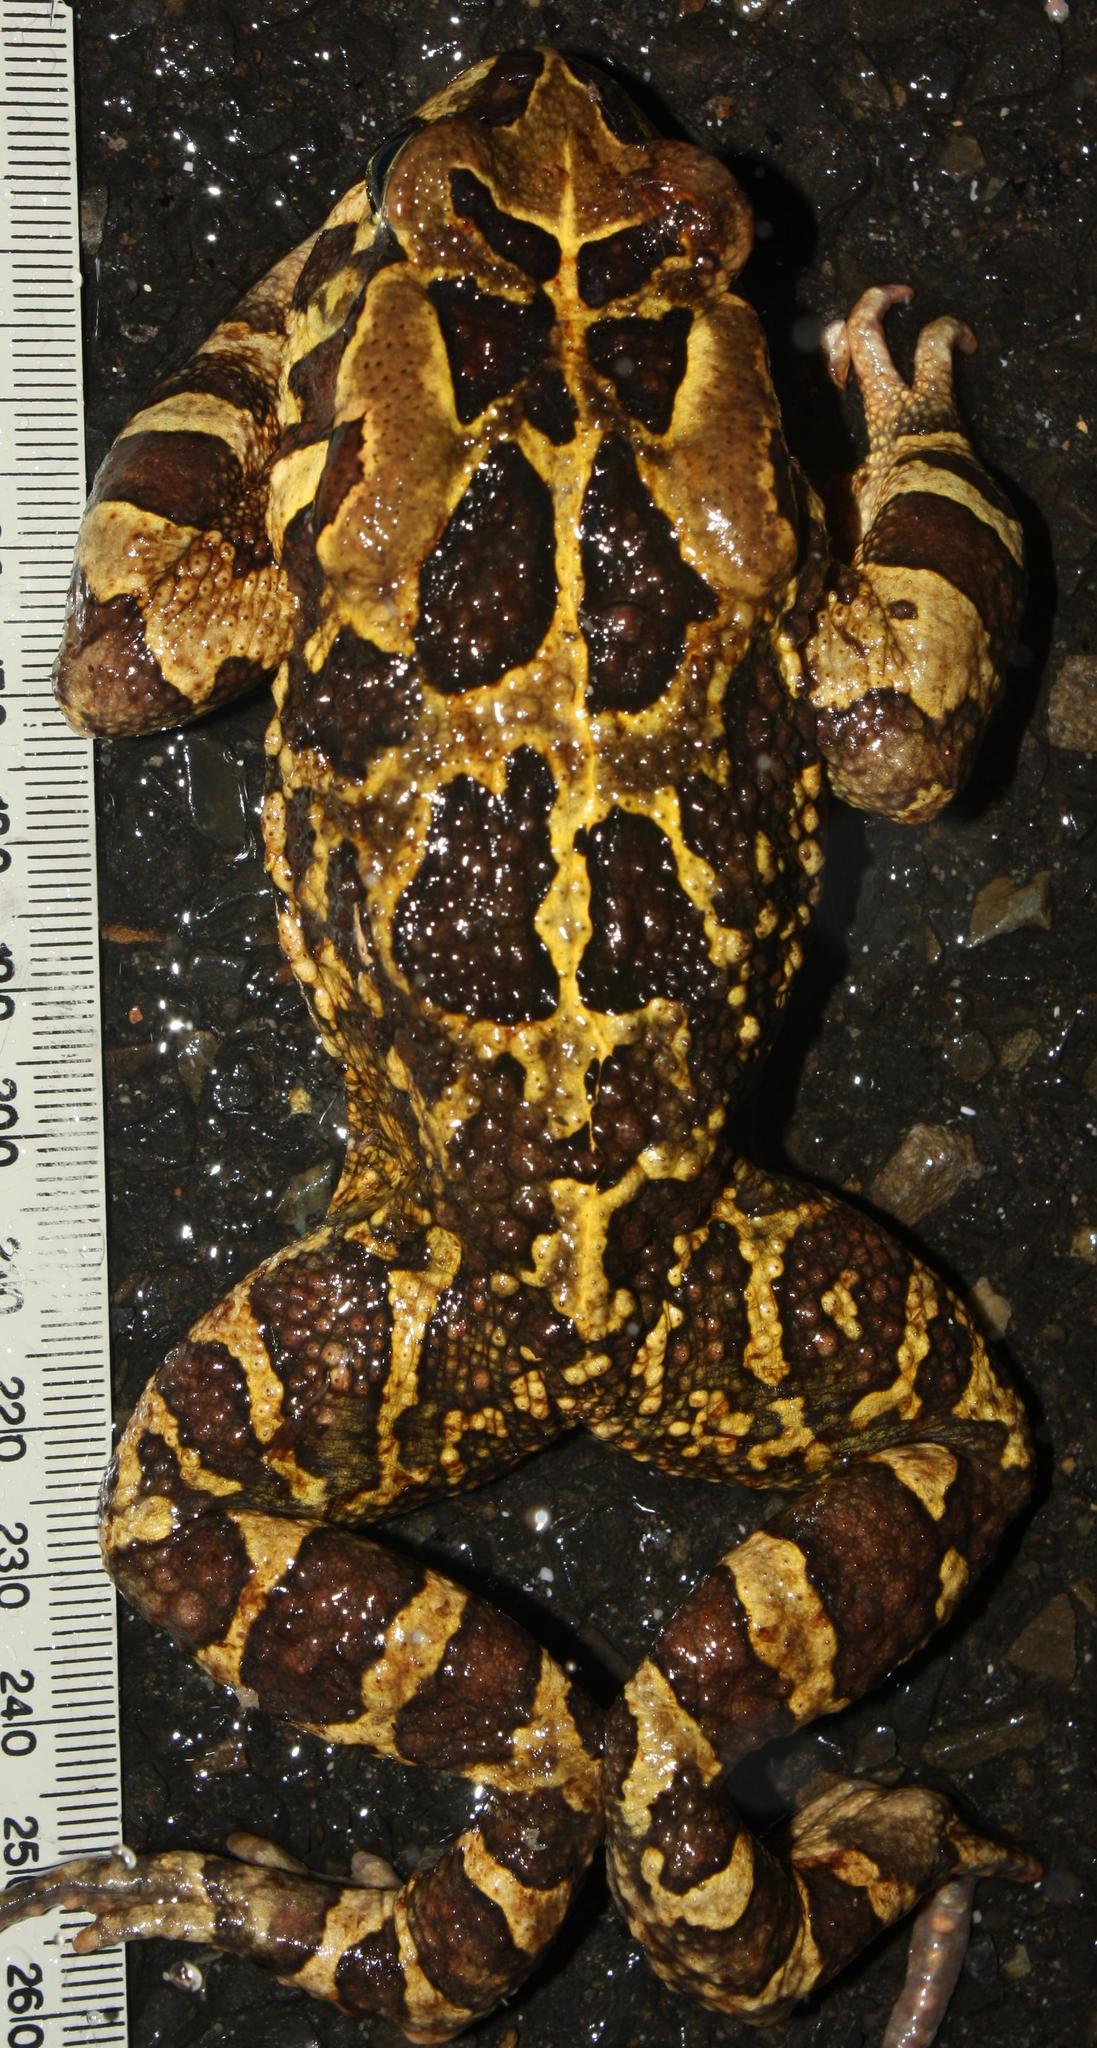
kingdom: Animalia
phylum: Chordata
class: Amphibia
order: Anura
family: Bufonidae
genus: Sclerophrys
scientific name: Sclerophrys pantherina
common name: Panther toad
